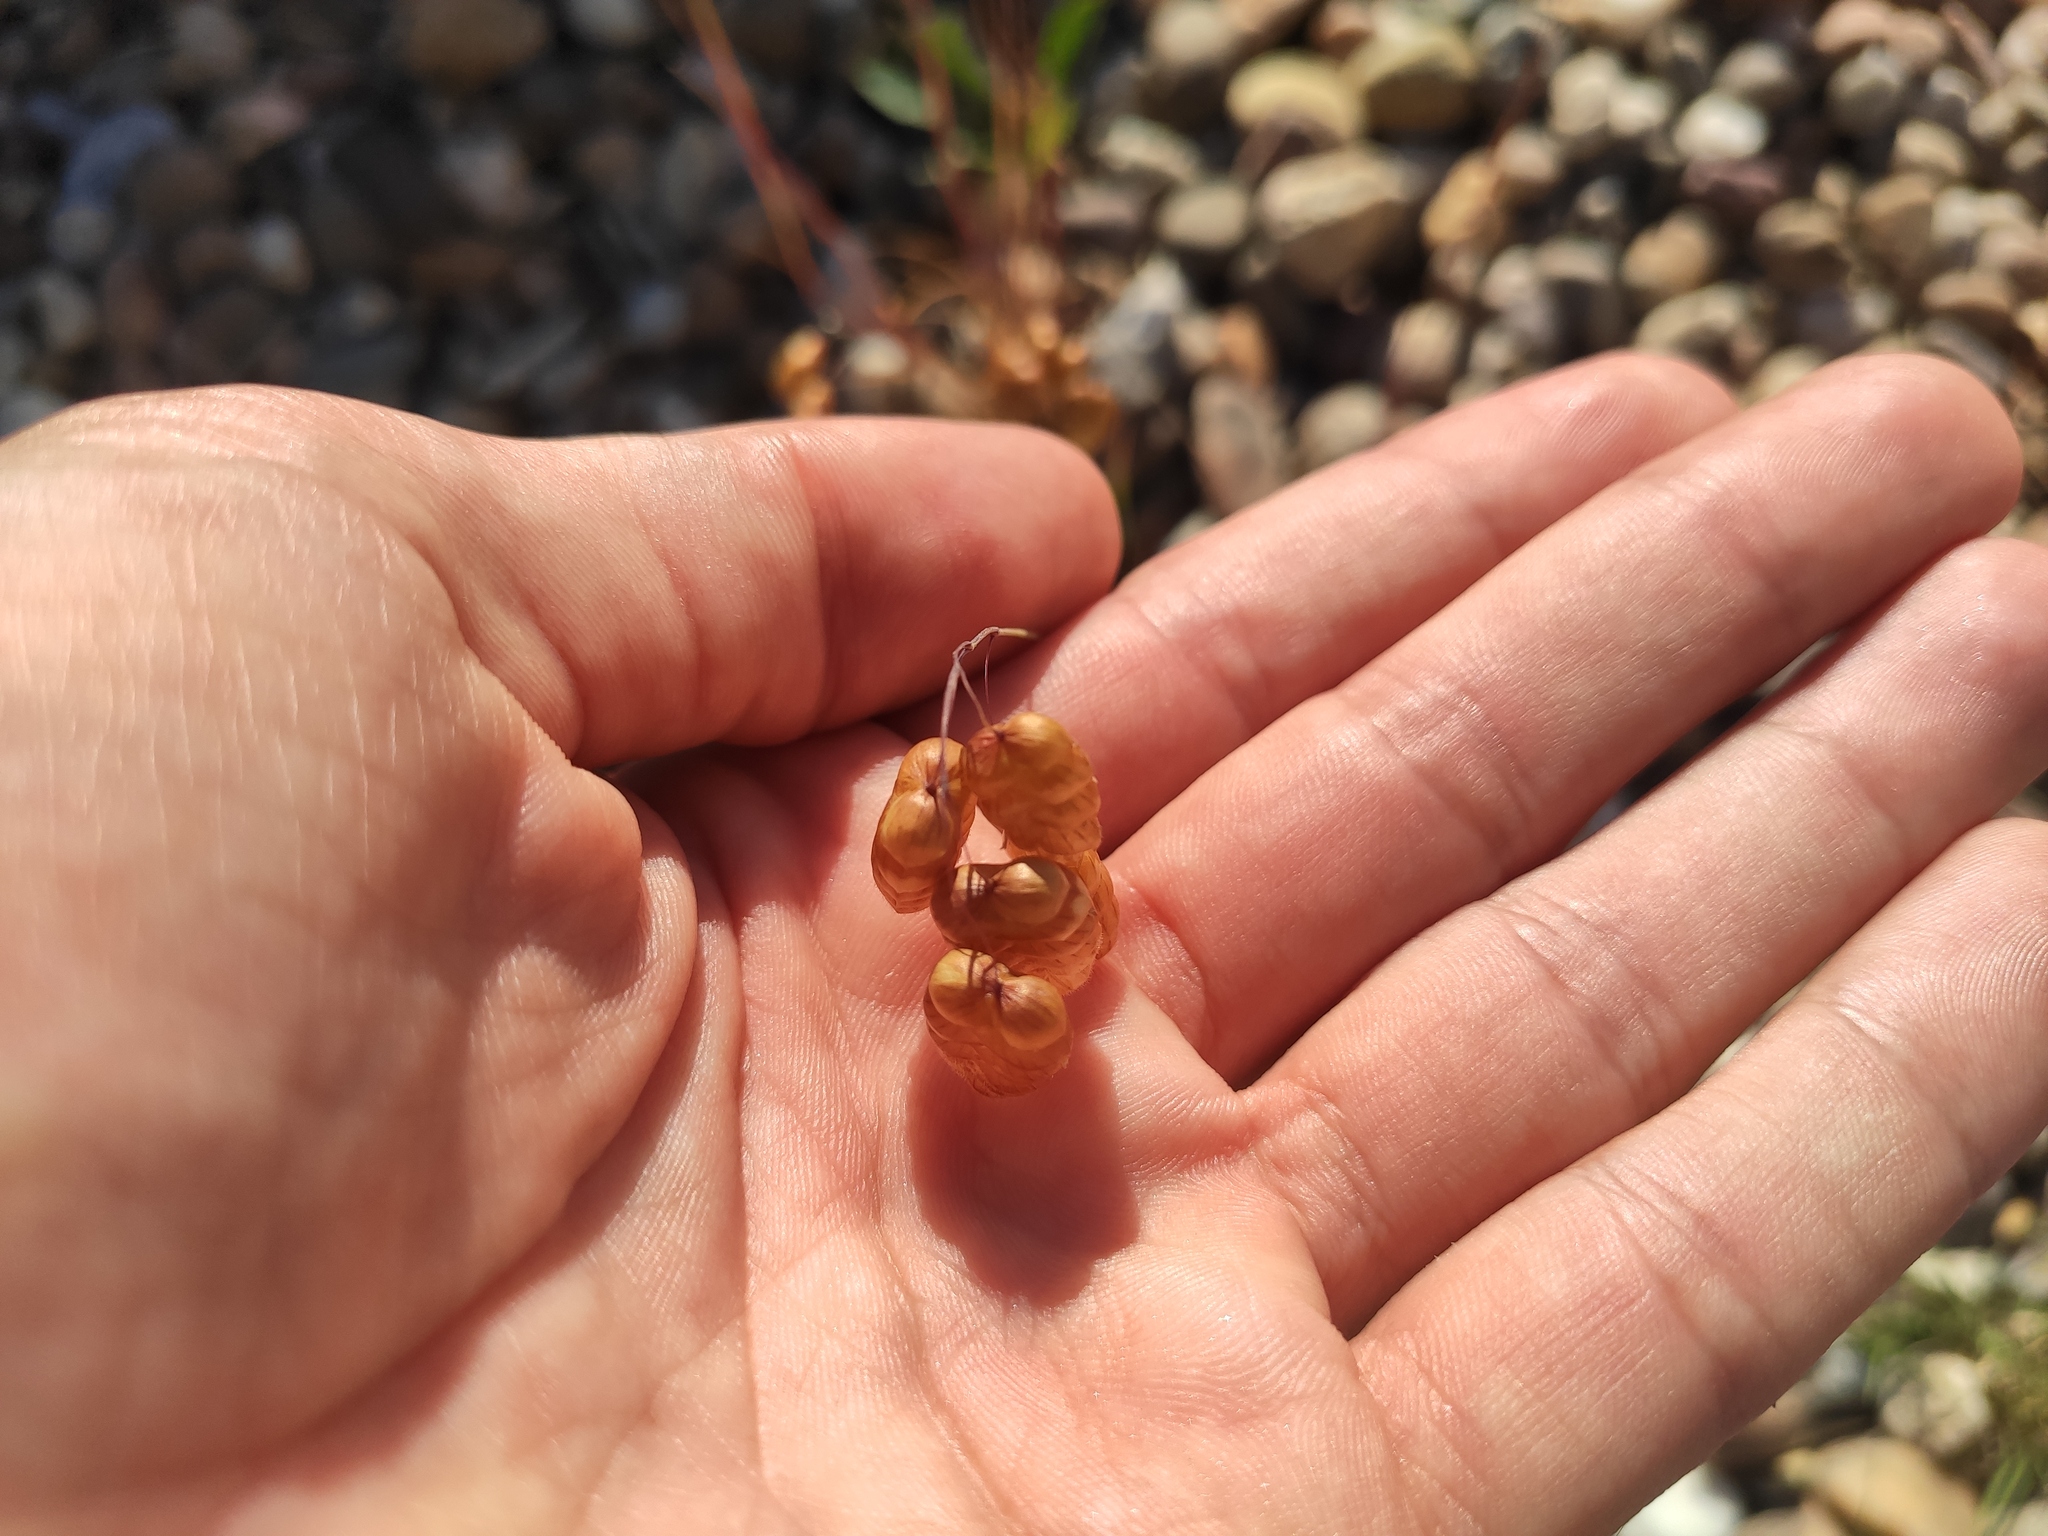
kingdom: Plantae
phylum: Tracheophyta
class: Liliopsida
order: Poales
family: Poaceae
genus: Briza
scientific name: Briza maxima
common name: Big quakinggrass
